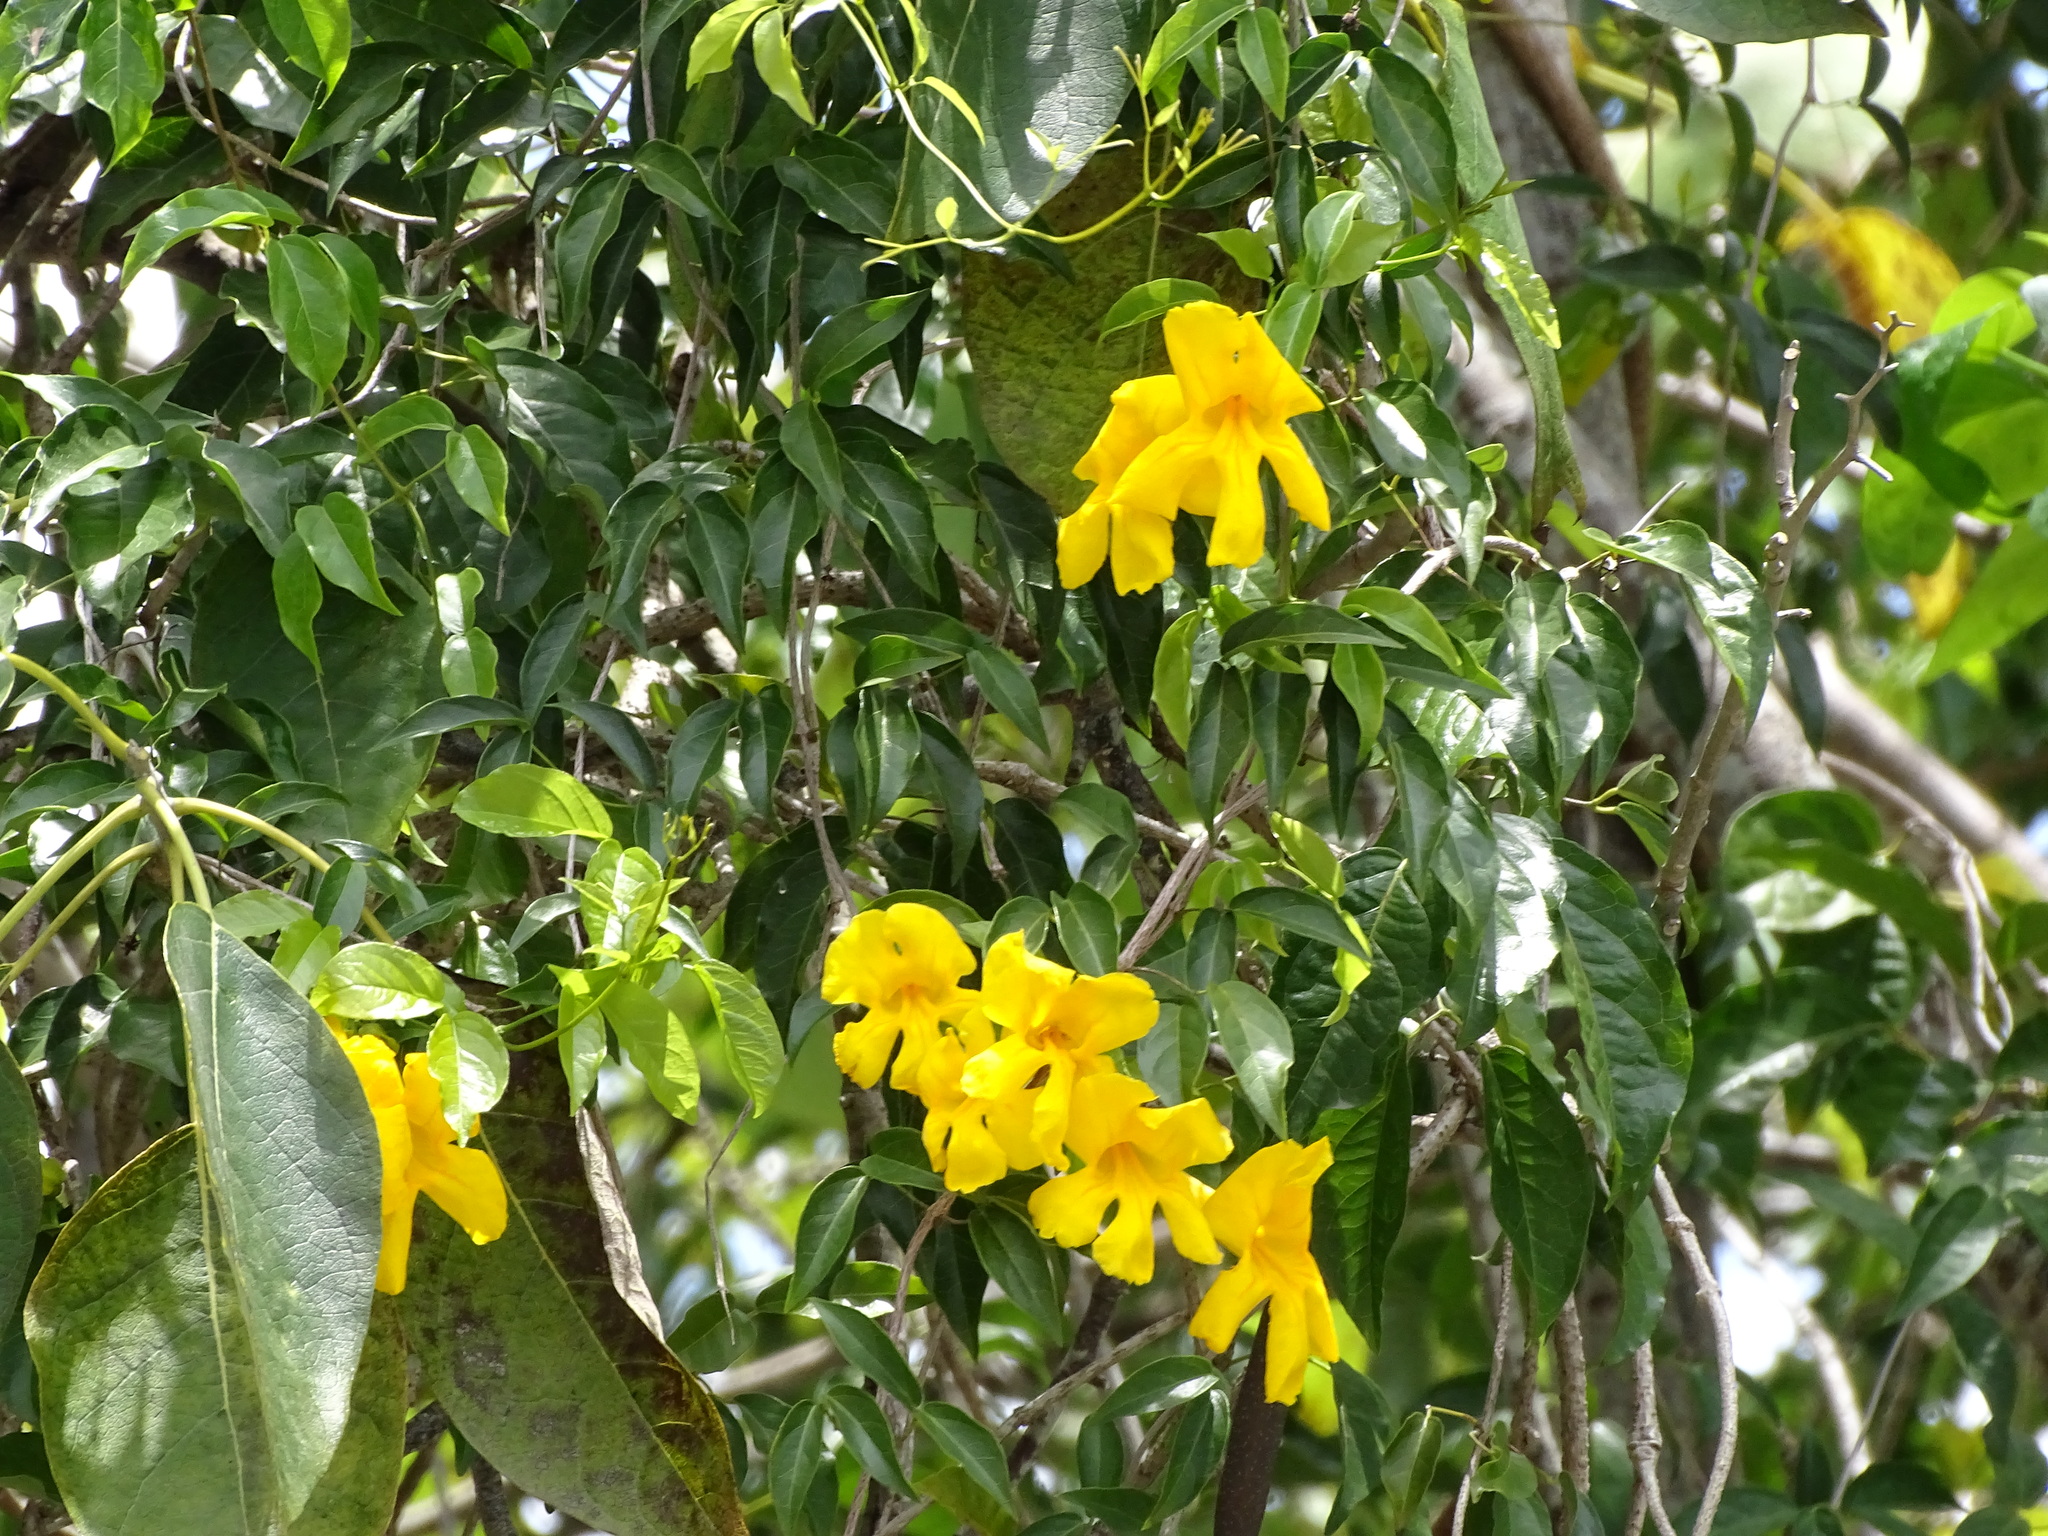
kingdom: Plantae
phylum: Tracheophyta
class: Magnoliopsida
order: Lamiales
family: Bignoniaceae
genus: Dolichandra
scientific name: Dolichandra unguis-cati
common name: Catclaw vine
